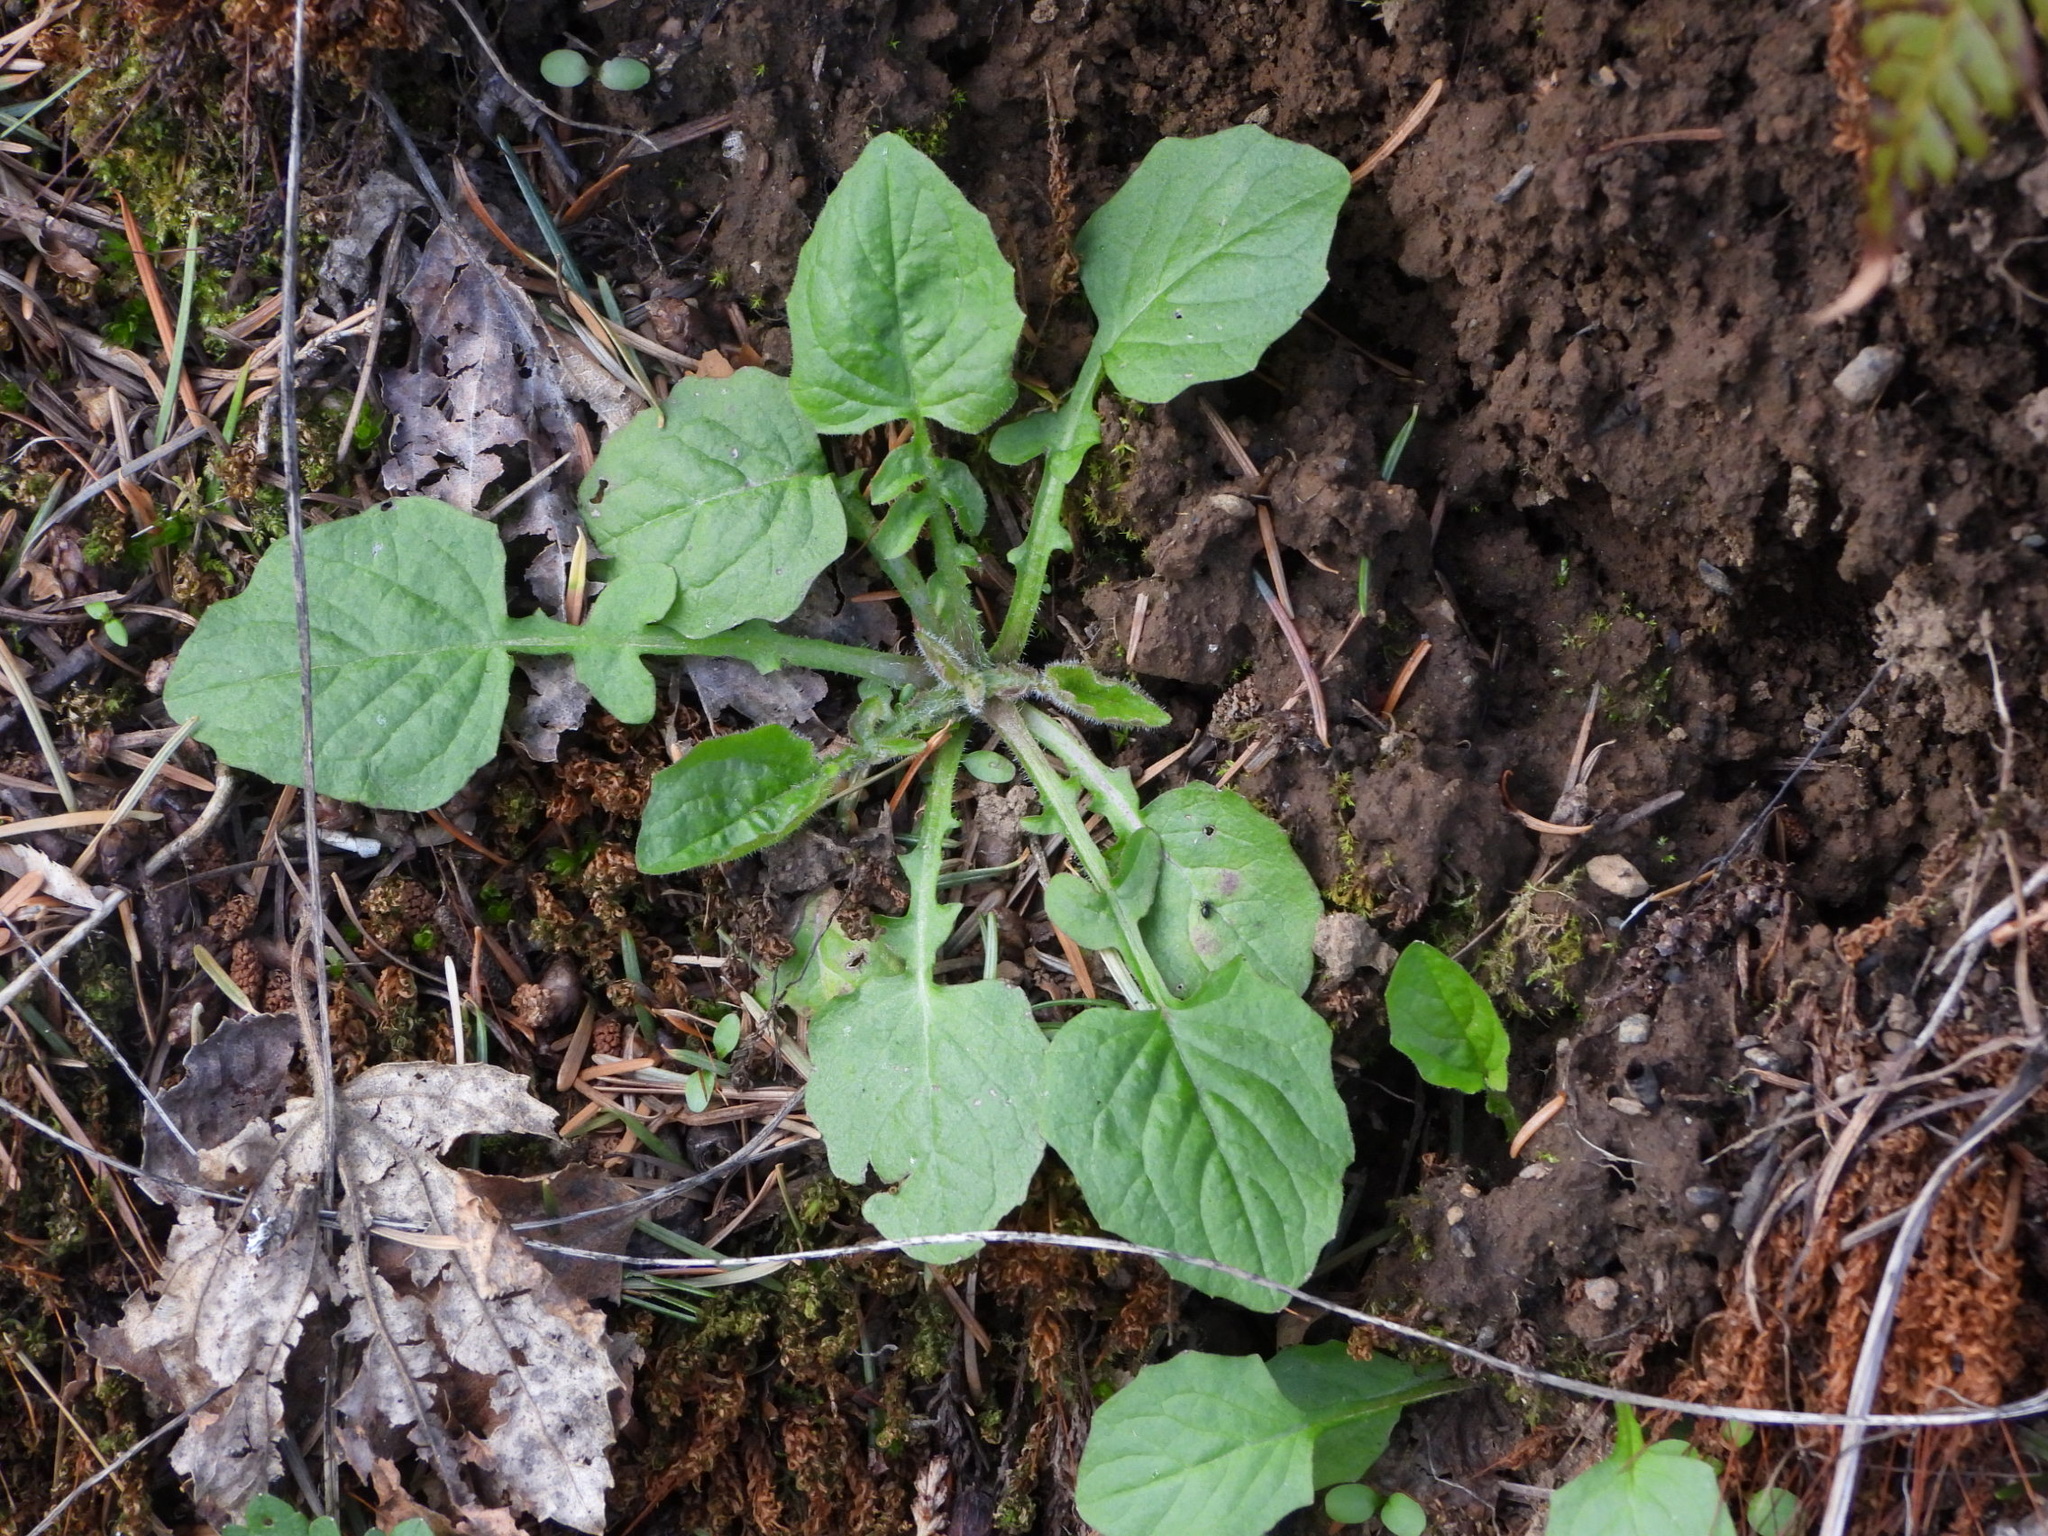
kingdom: Plantae
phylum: Tracheophyta
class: Magnoliopsida
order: Asterales
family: Asteraceae
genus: Lapsana
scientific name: Lapsana communis
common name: Nipplewort
